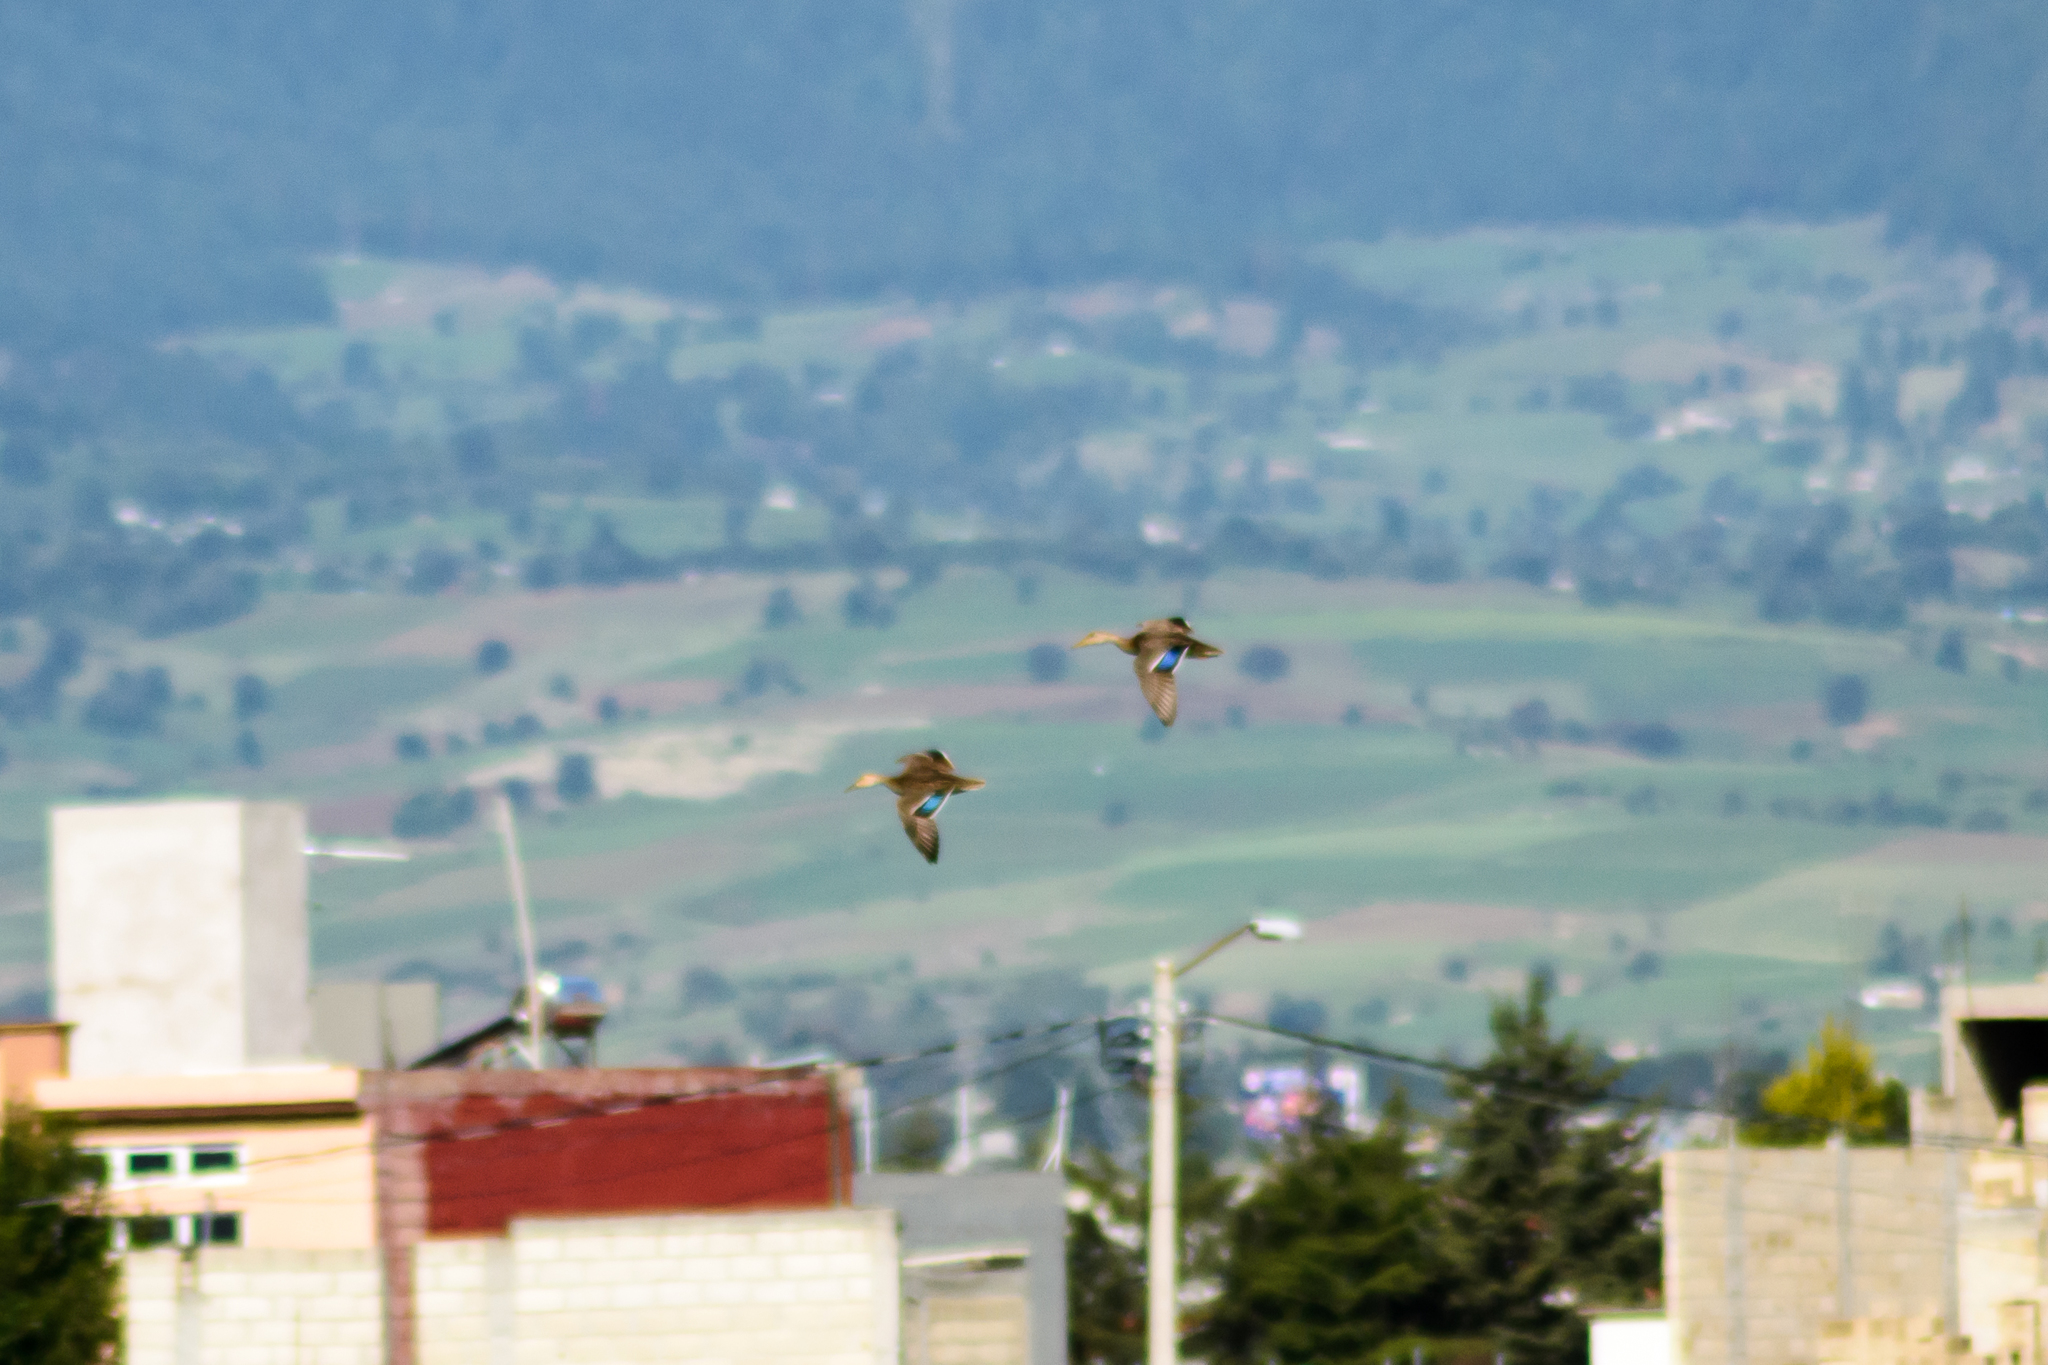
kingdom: Animalia
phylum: Chordata
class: Aves
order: Anseriformes
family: Anatidae
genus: Anas
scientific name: Anas diazi
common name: Mexican duck
